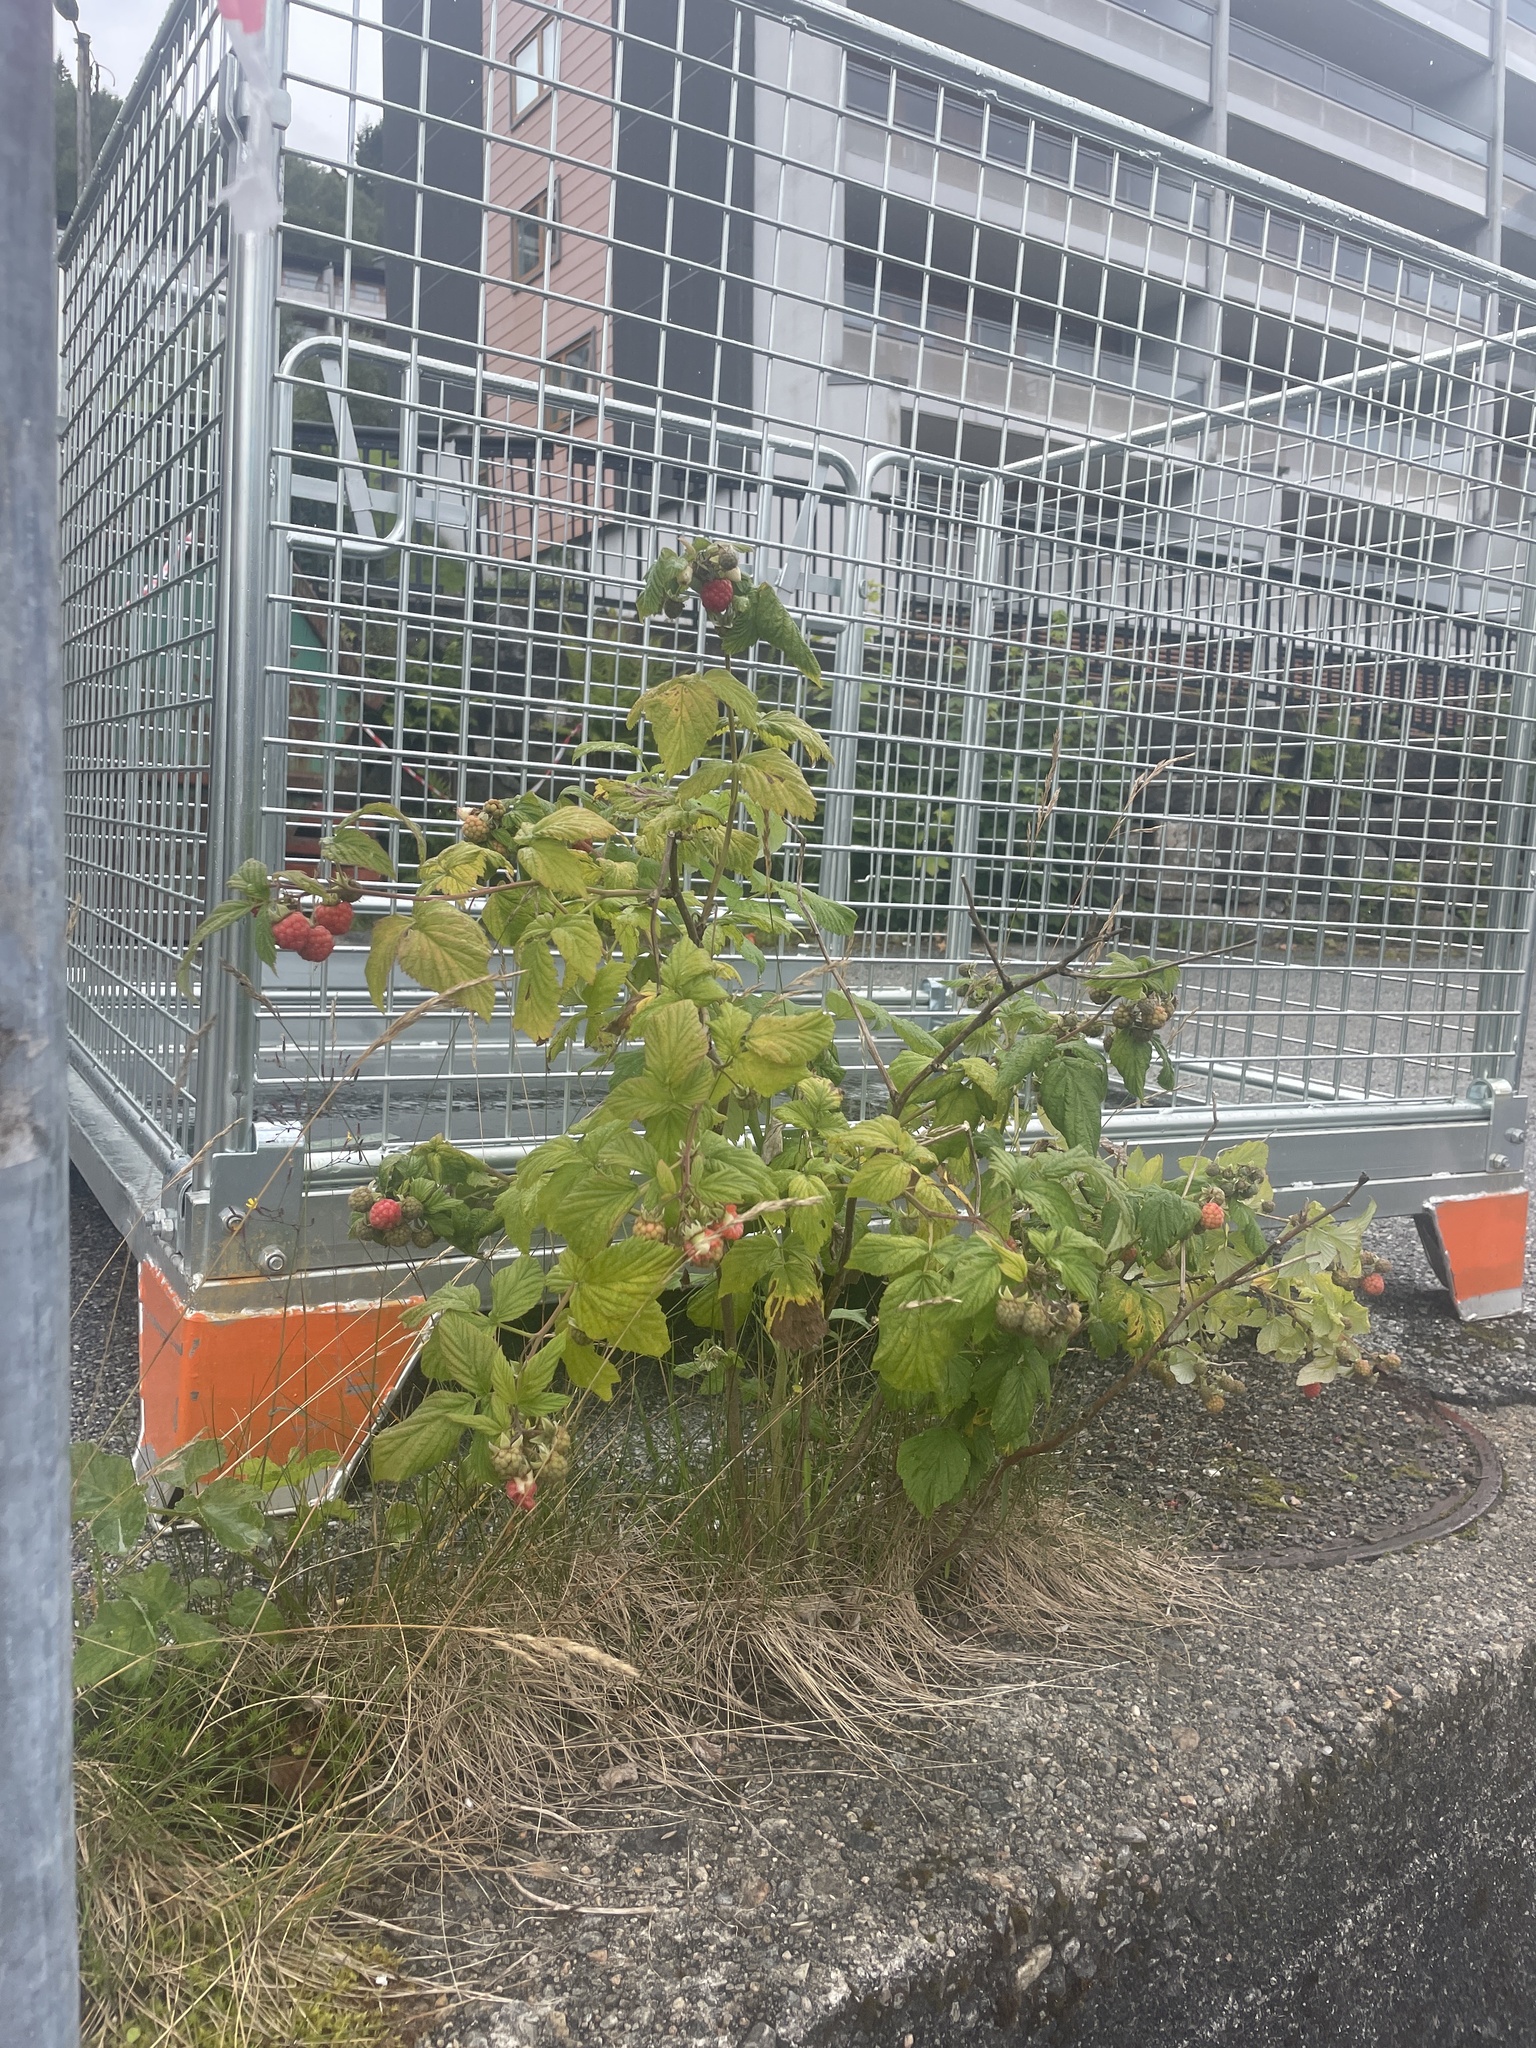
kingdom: Plantae
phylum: Tracheophyta
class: Magnoliopsida
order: Rosales
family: Rosaceae
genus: Rubus
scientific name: Rubus idaeus
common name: Raspberry
